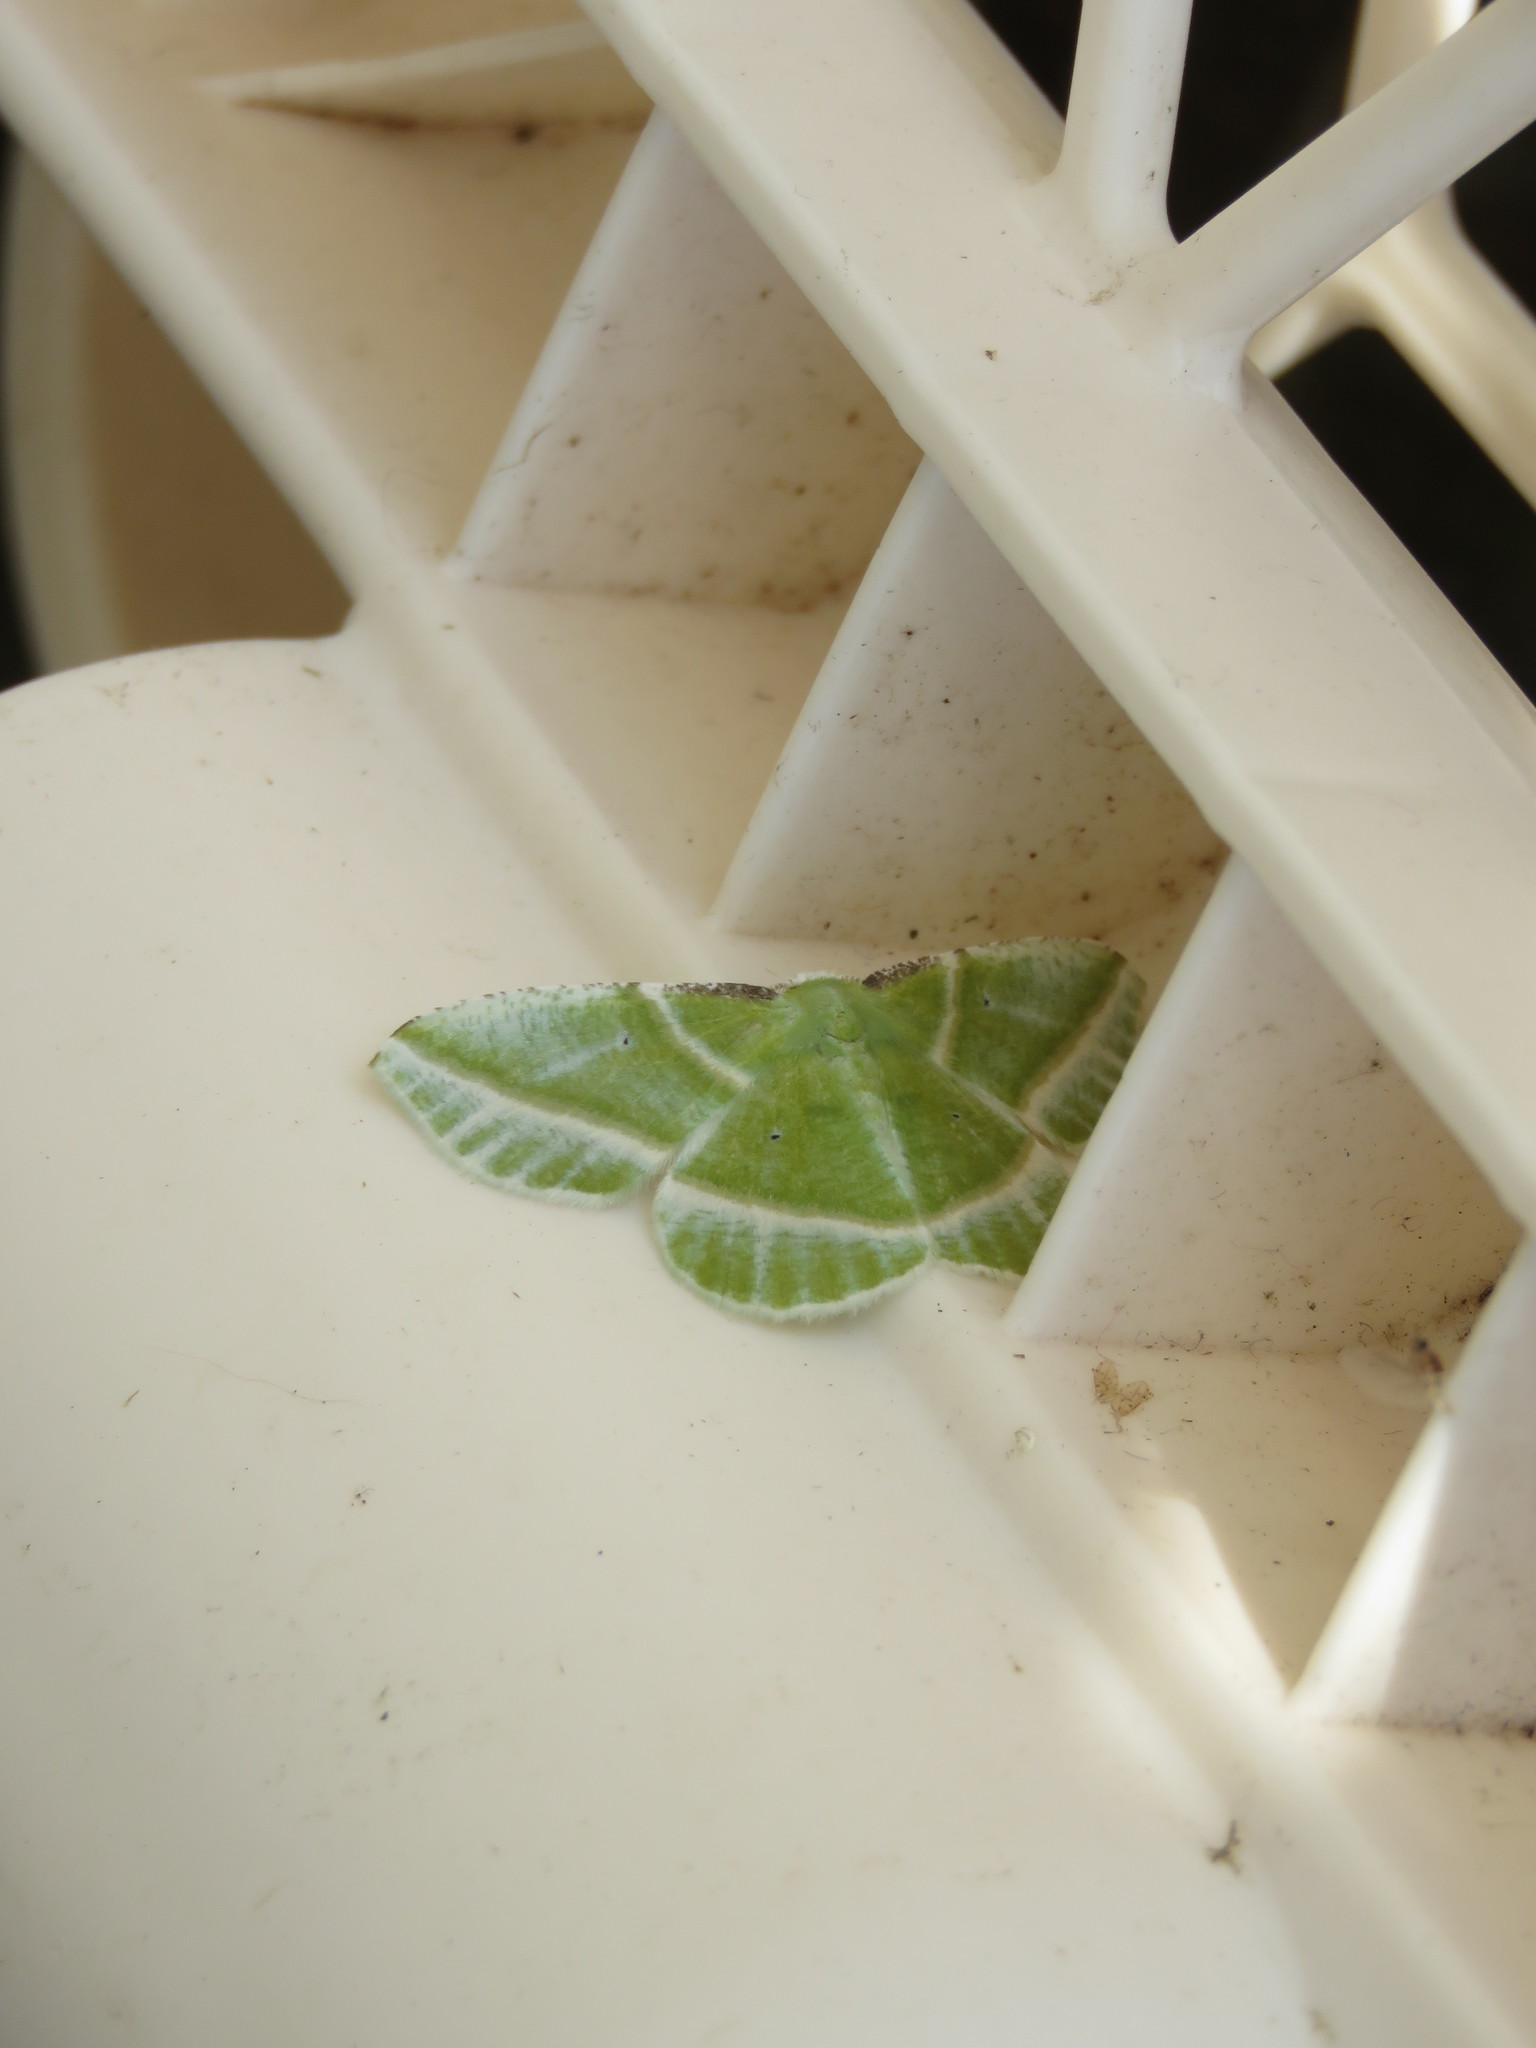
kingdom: Animalia
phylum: Arthropoda
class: Insecta
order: Lepidoptera
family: Geometridae
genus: Dichorda
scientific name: Dichorda iridaria
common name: Showy emerald
